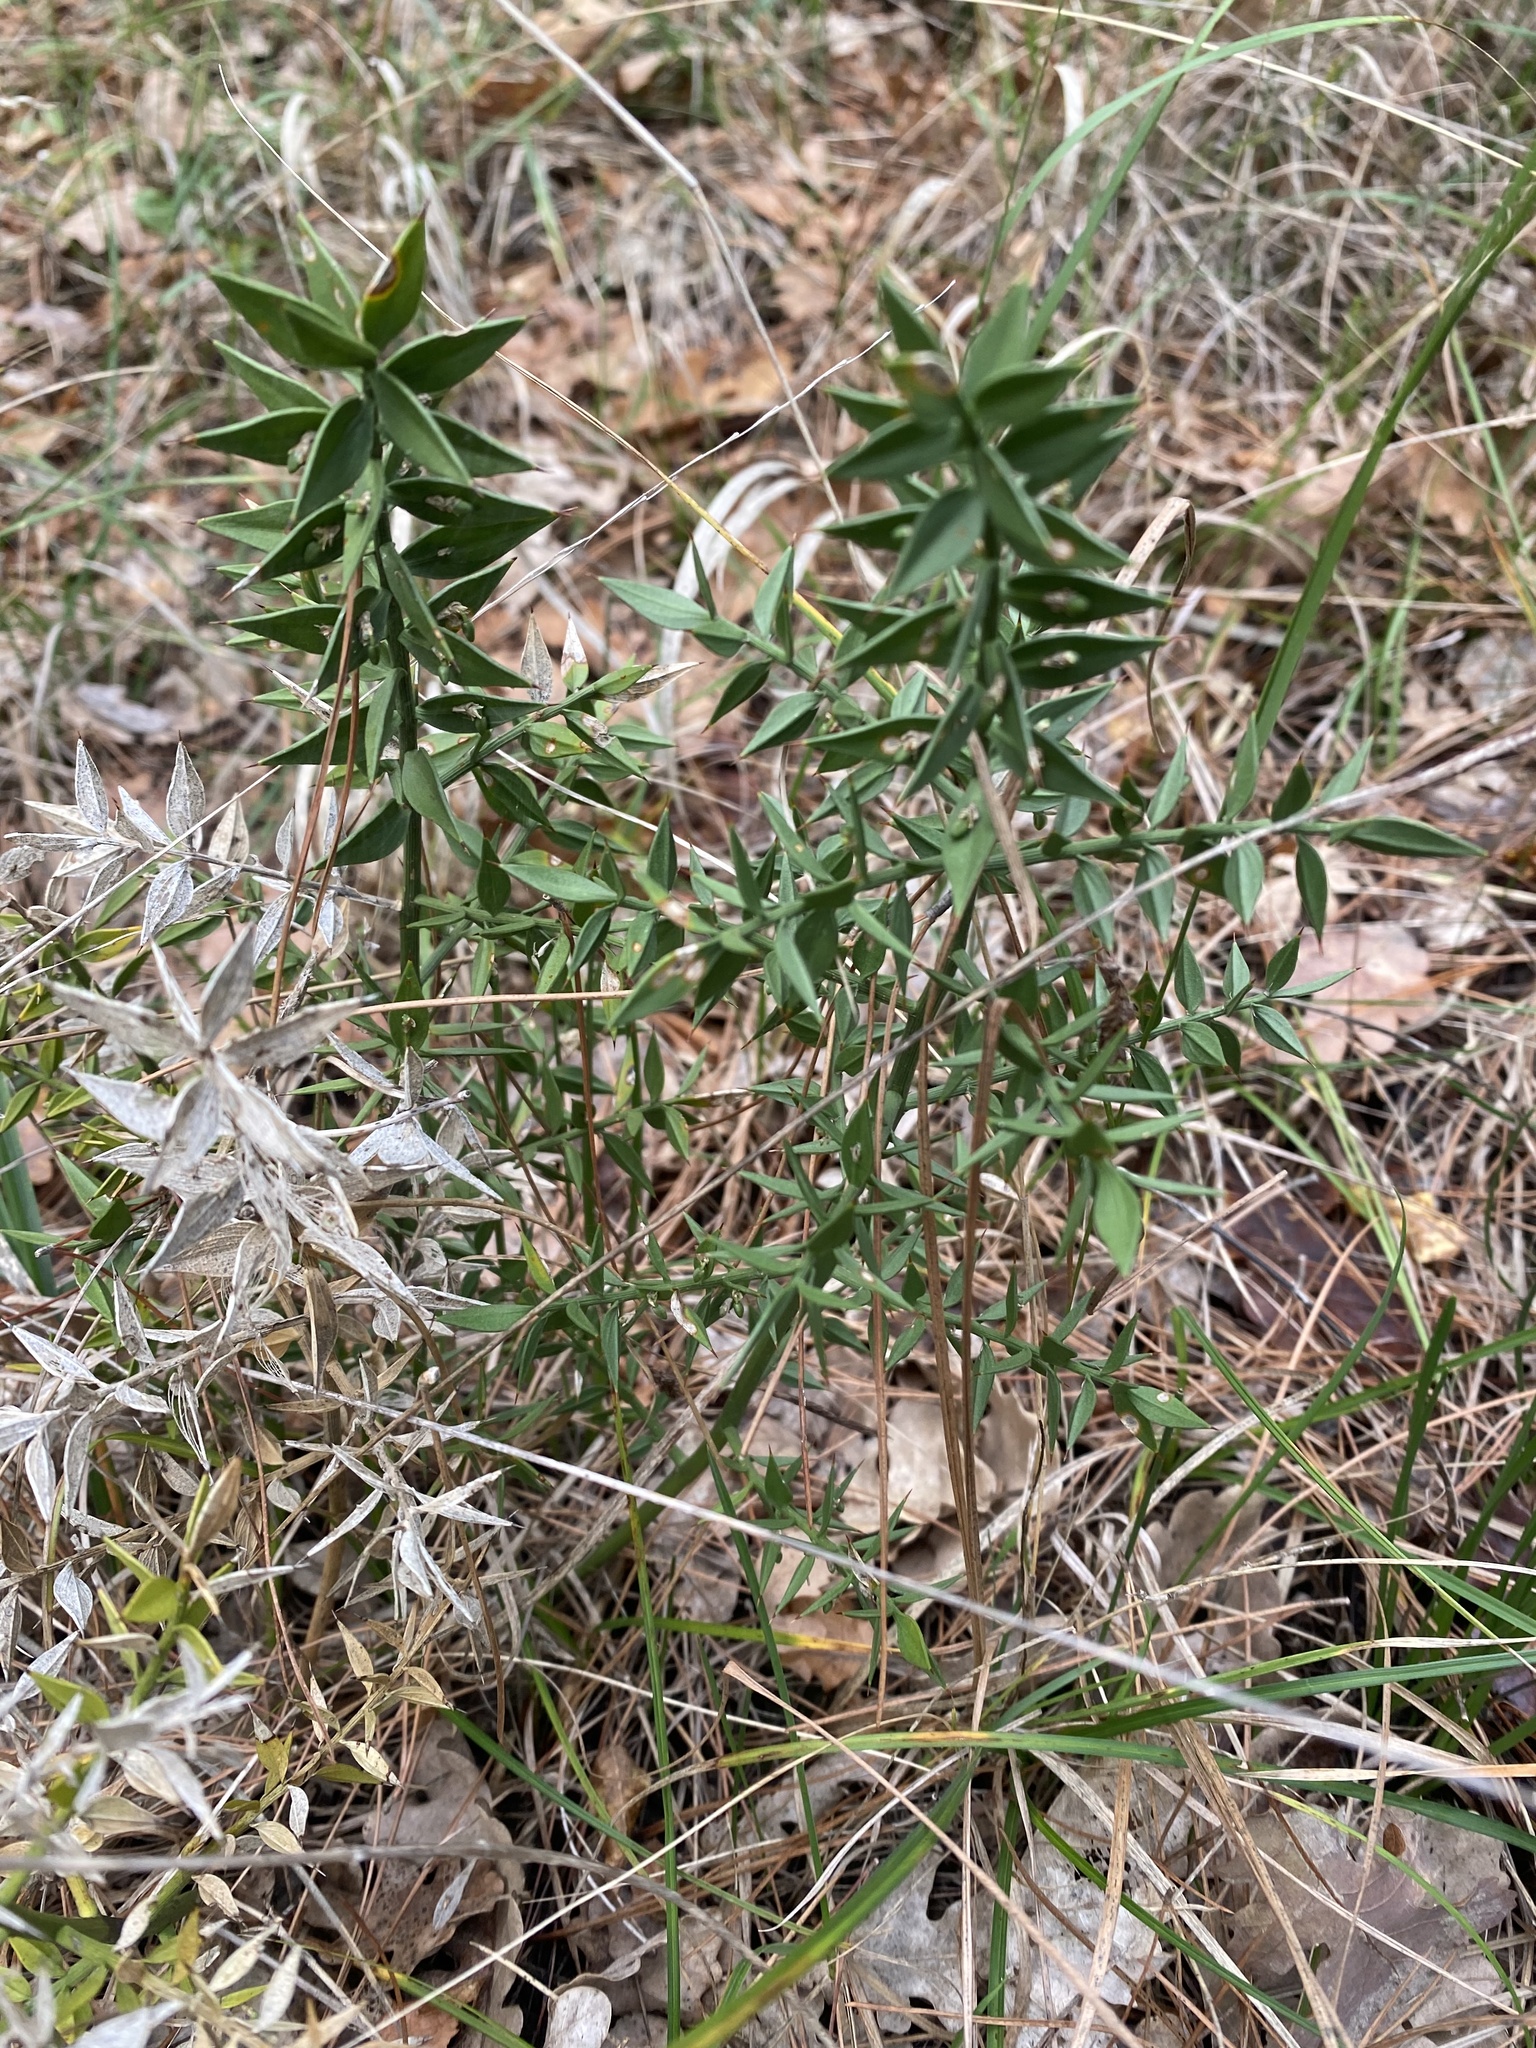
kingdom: Plantae
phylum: Tracheophyta
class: Liliopsida
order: Asparagales
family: Asparagaceae
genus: Ruscus
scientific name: Ruscus aculeatus
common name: Butcher's-broom
